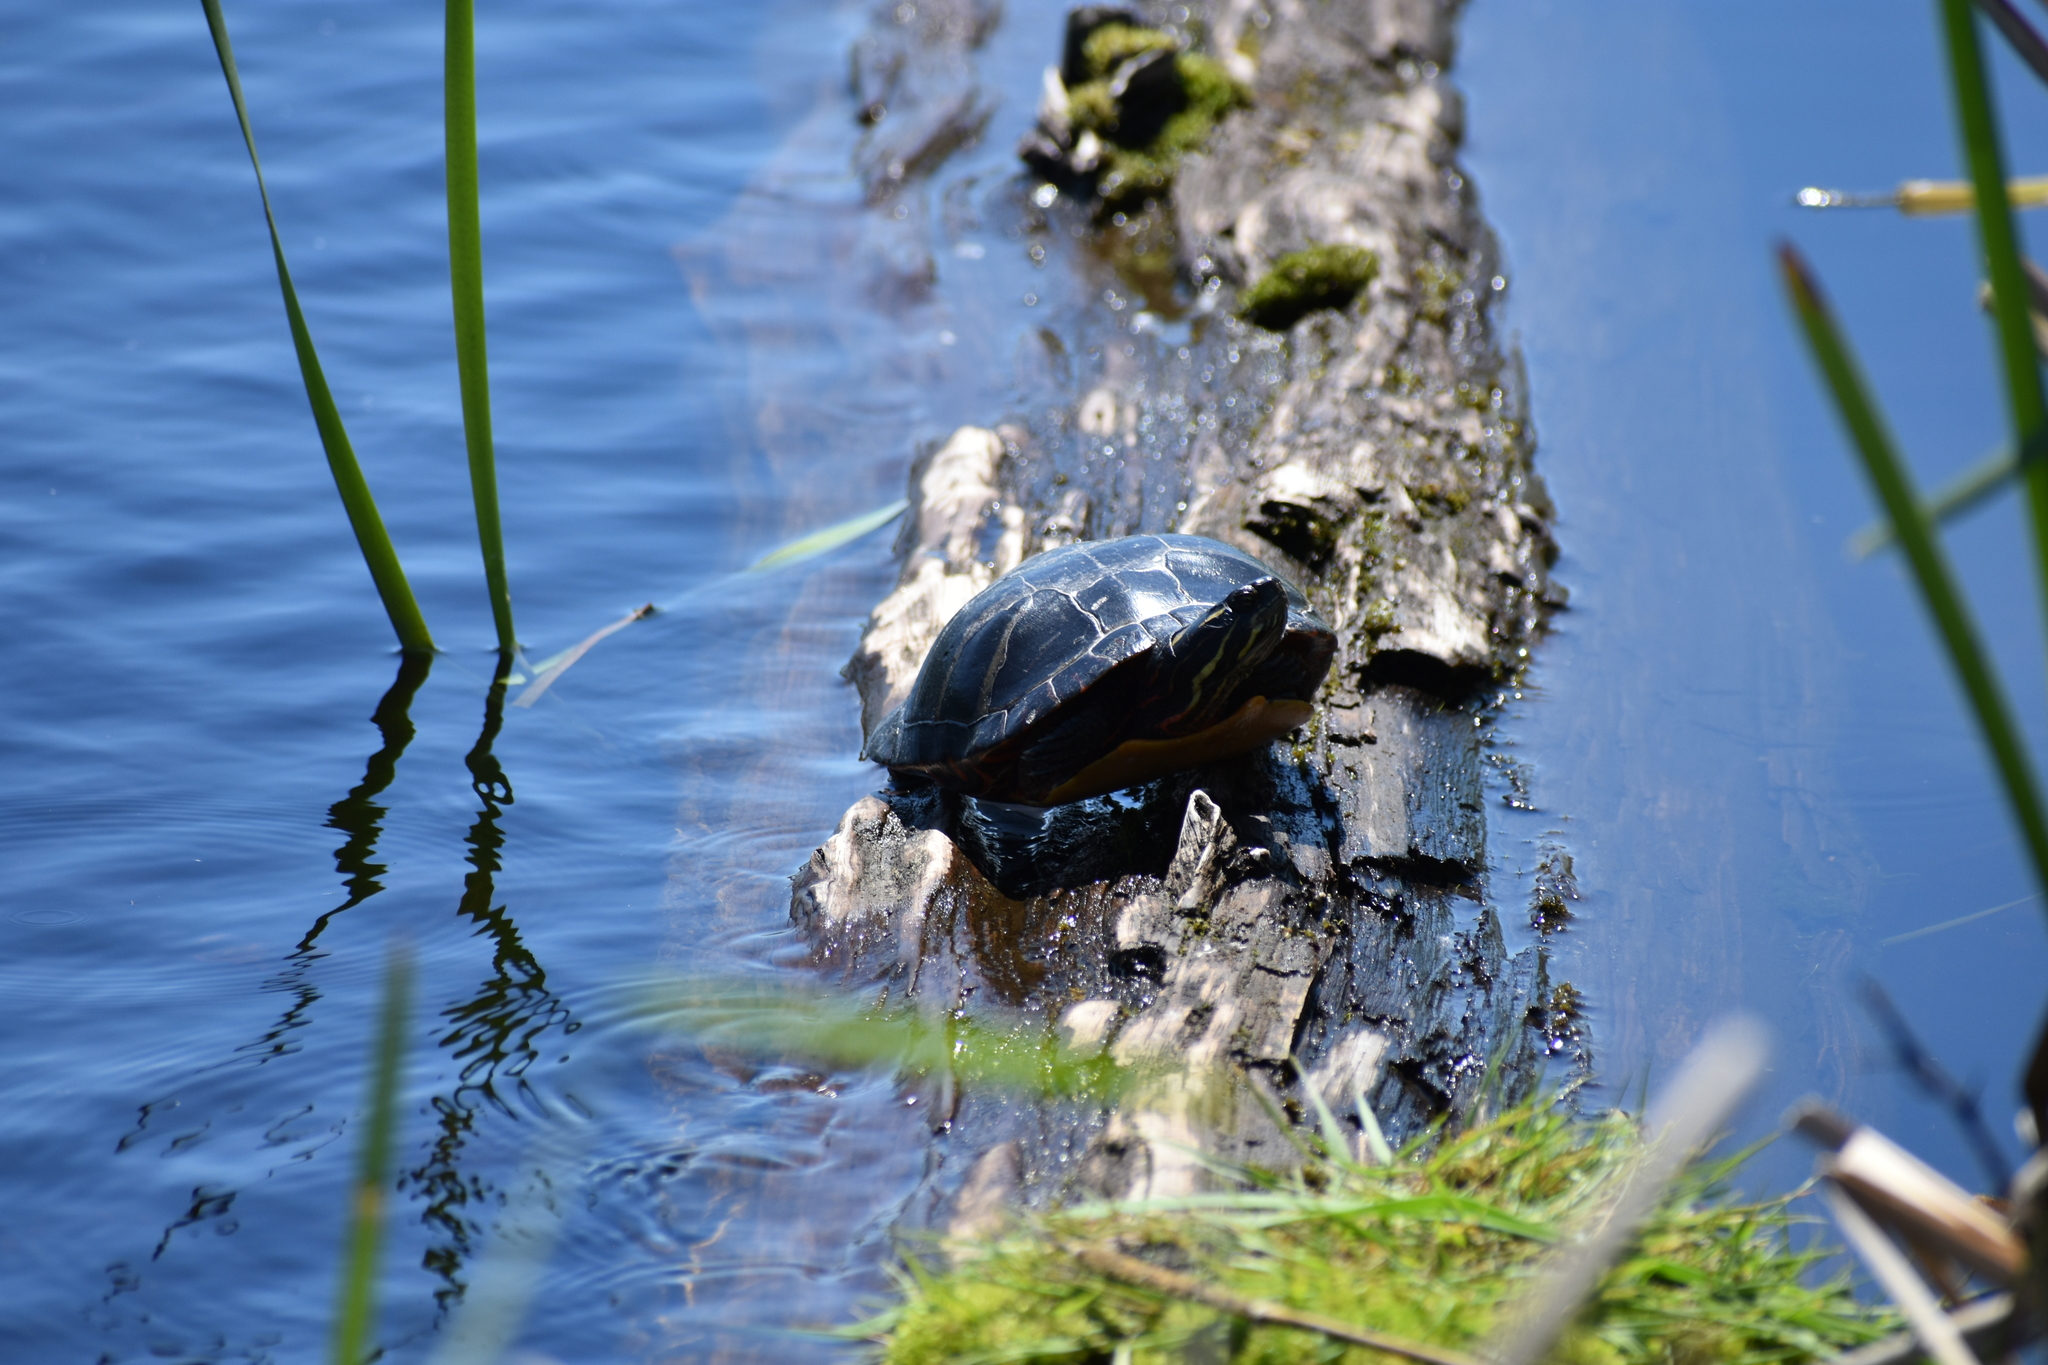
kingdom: Animalia
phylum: Chordata
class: Testudines
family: Emydidae
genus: Chrysemys
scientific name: Chrysemys picta
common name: Painted turtle
